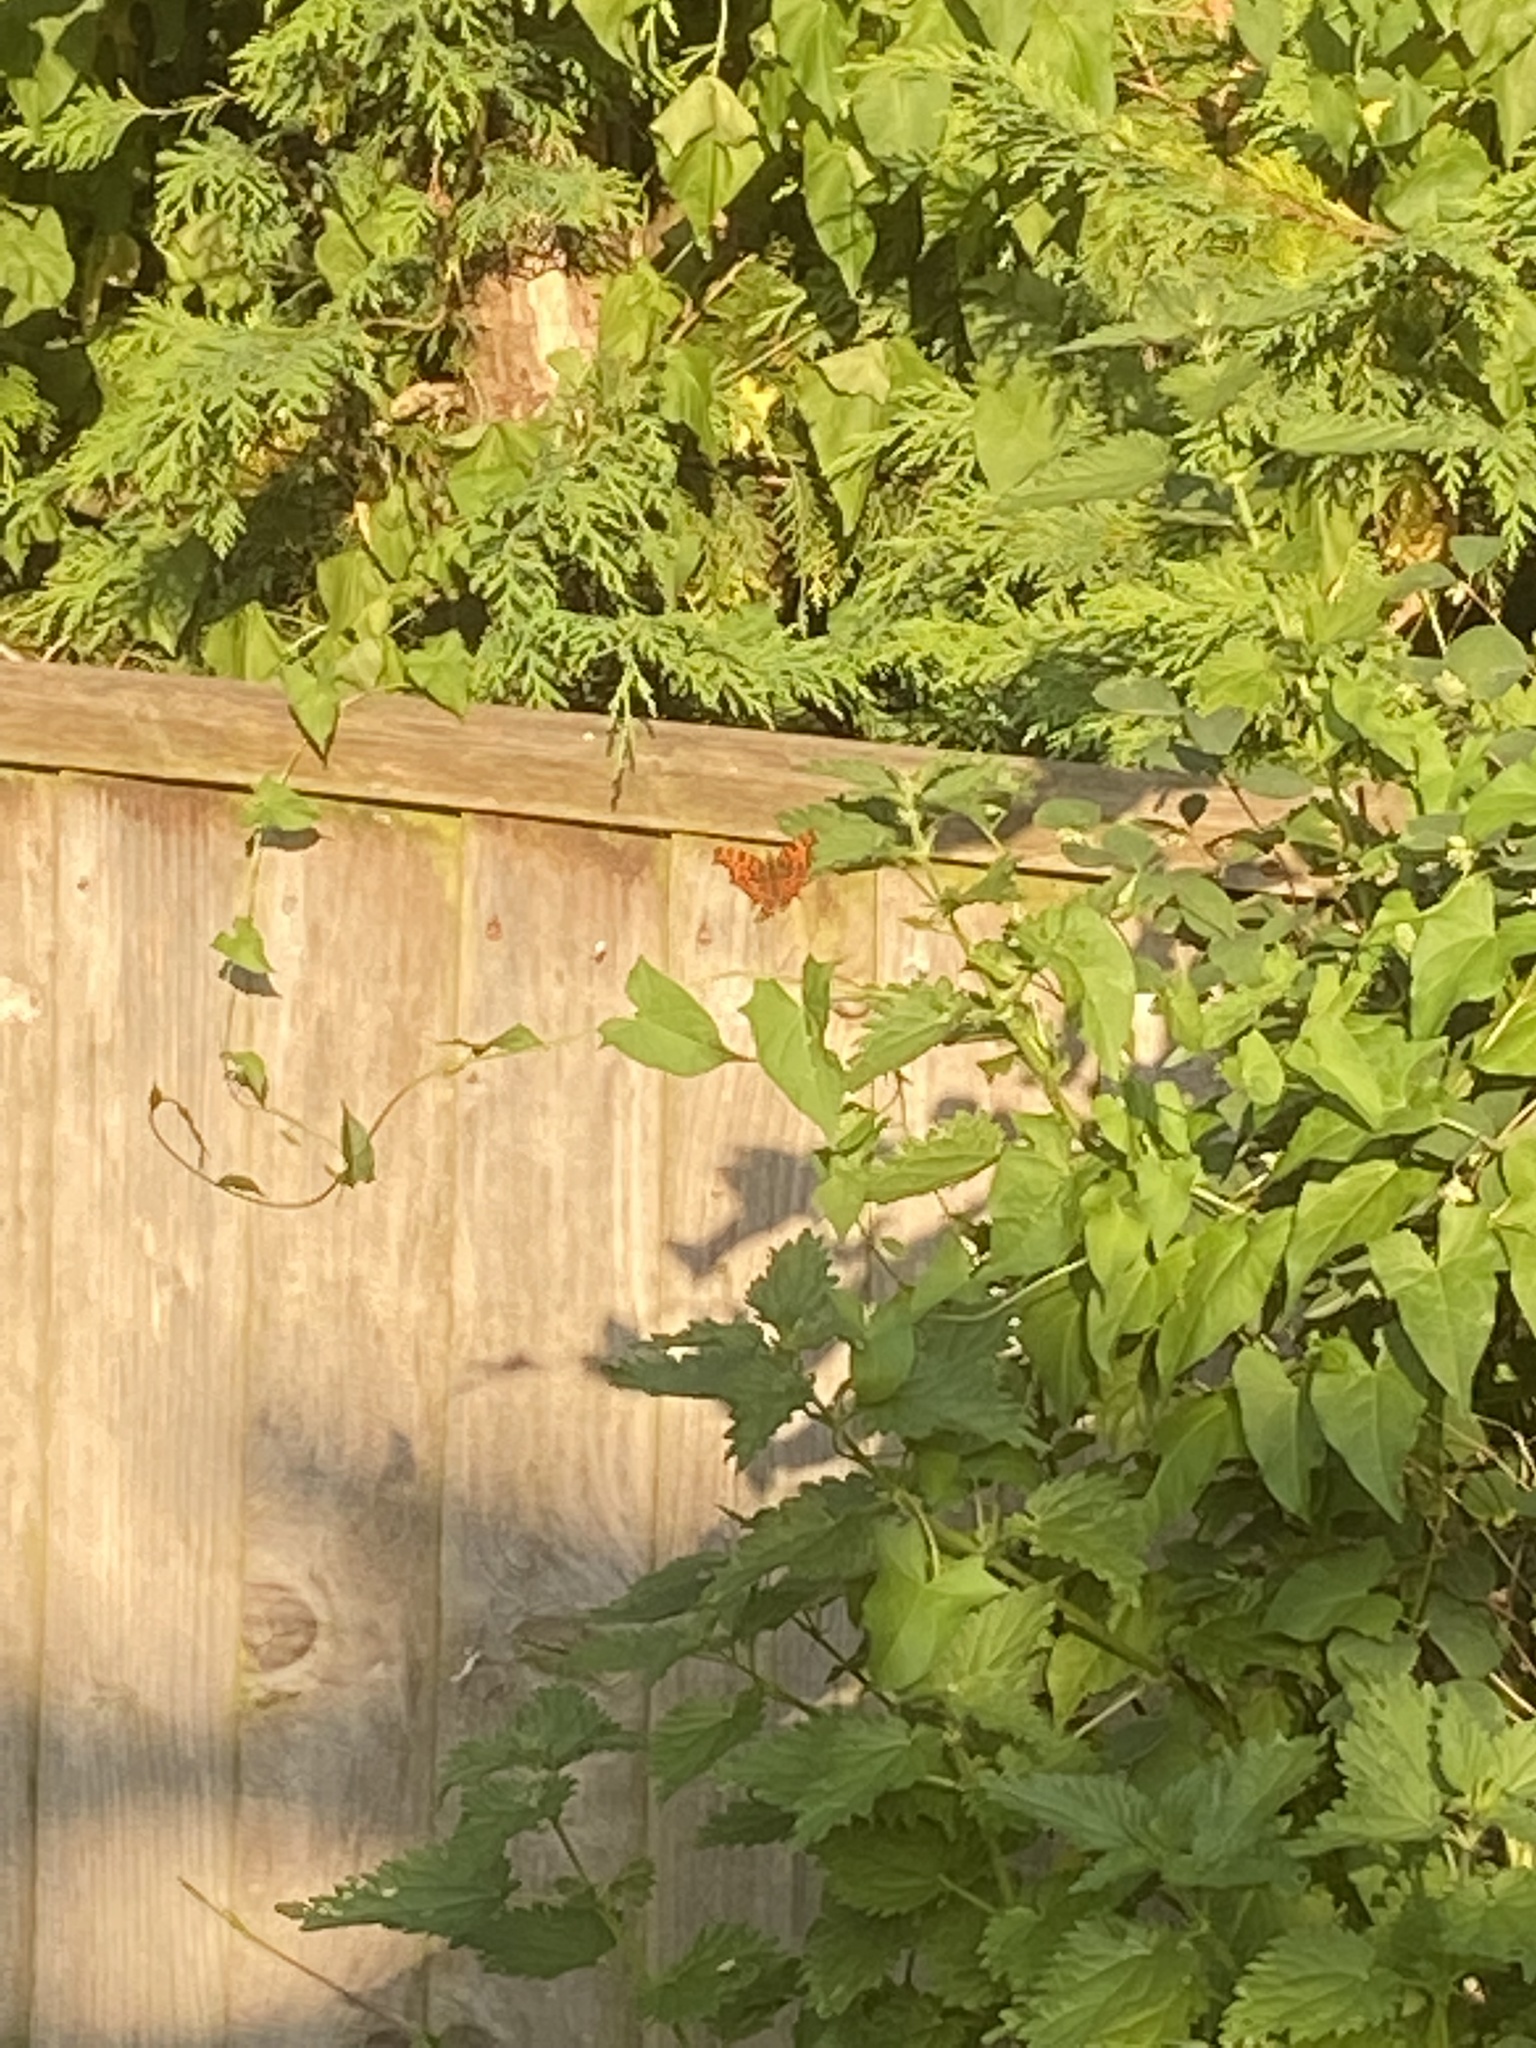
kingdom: Animalia
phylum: Arthropoda
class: Insecta
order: Lepidoptera
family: Nymphalidae
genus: Polygonia
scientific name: Polygonia c-album
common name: Comma
